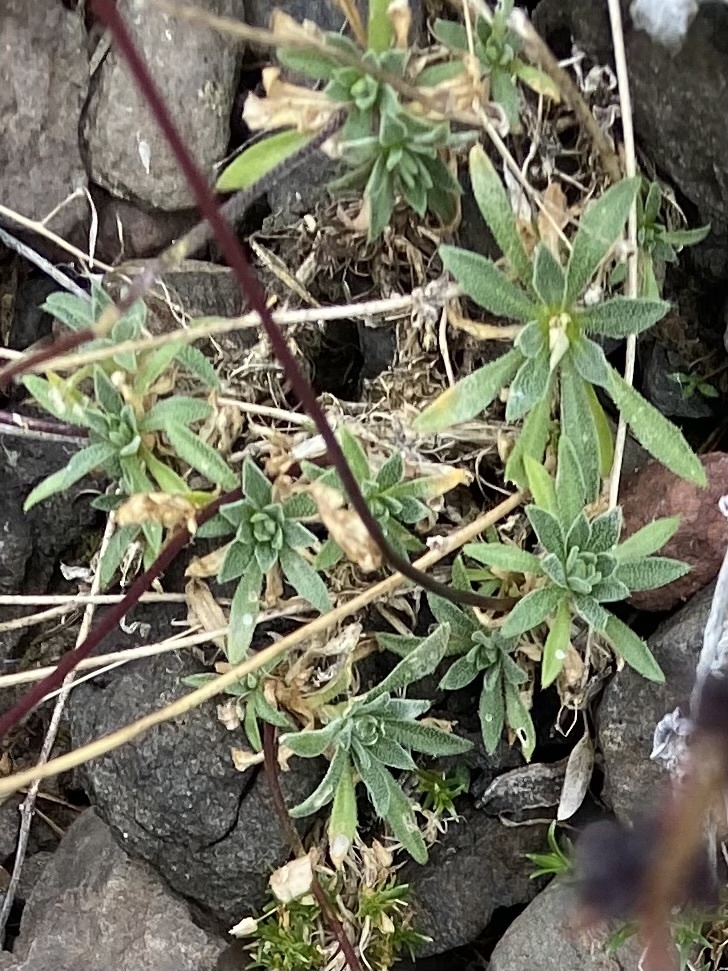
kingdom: Plantae
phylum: Tracheophyta
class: Magnoliopsida
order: Brassicales
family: Brassicaceae
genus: Draba
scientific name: Draba cinerea
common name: Ash-coloured whitlow-grass
